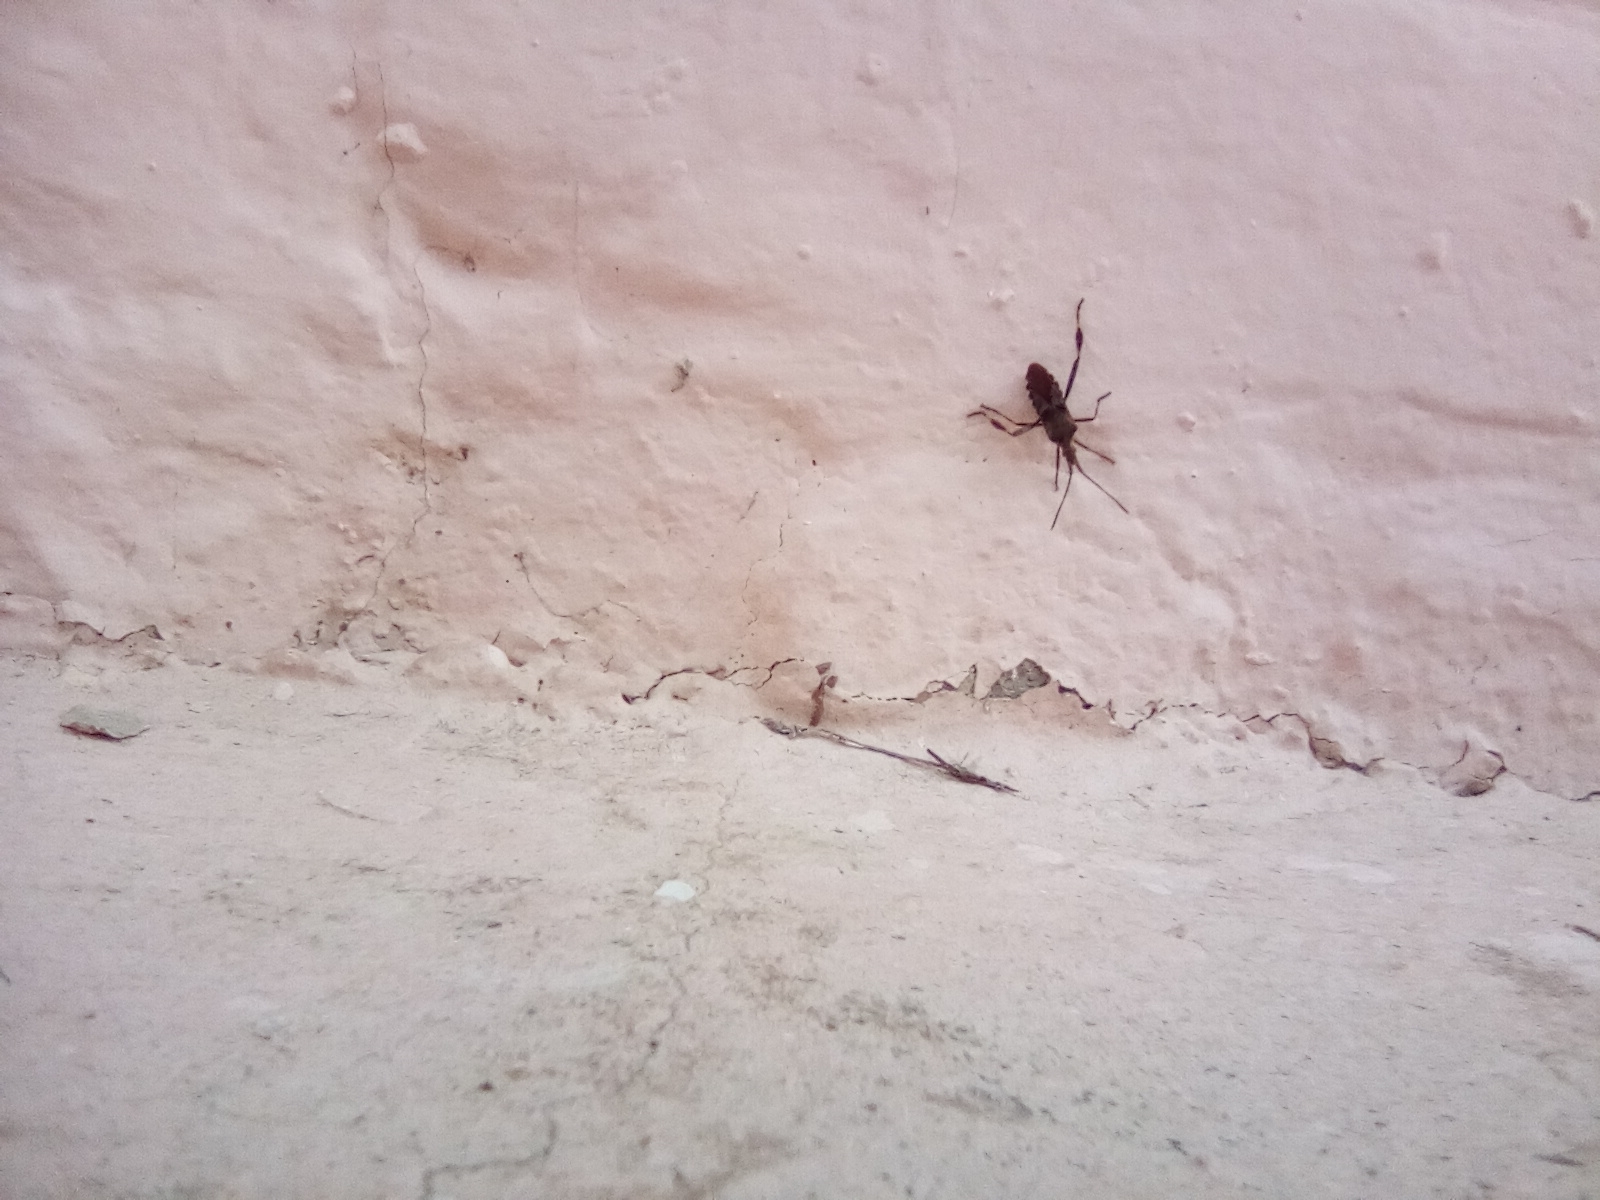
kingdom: Animalia
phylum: Arthropoda
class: Insecta
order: Hemiptera
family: Coreidae
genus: Leptoglossus
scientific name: Leptoglossus occidentalis
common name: Western conifer-seed bug
